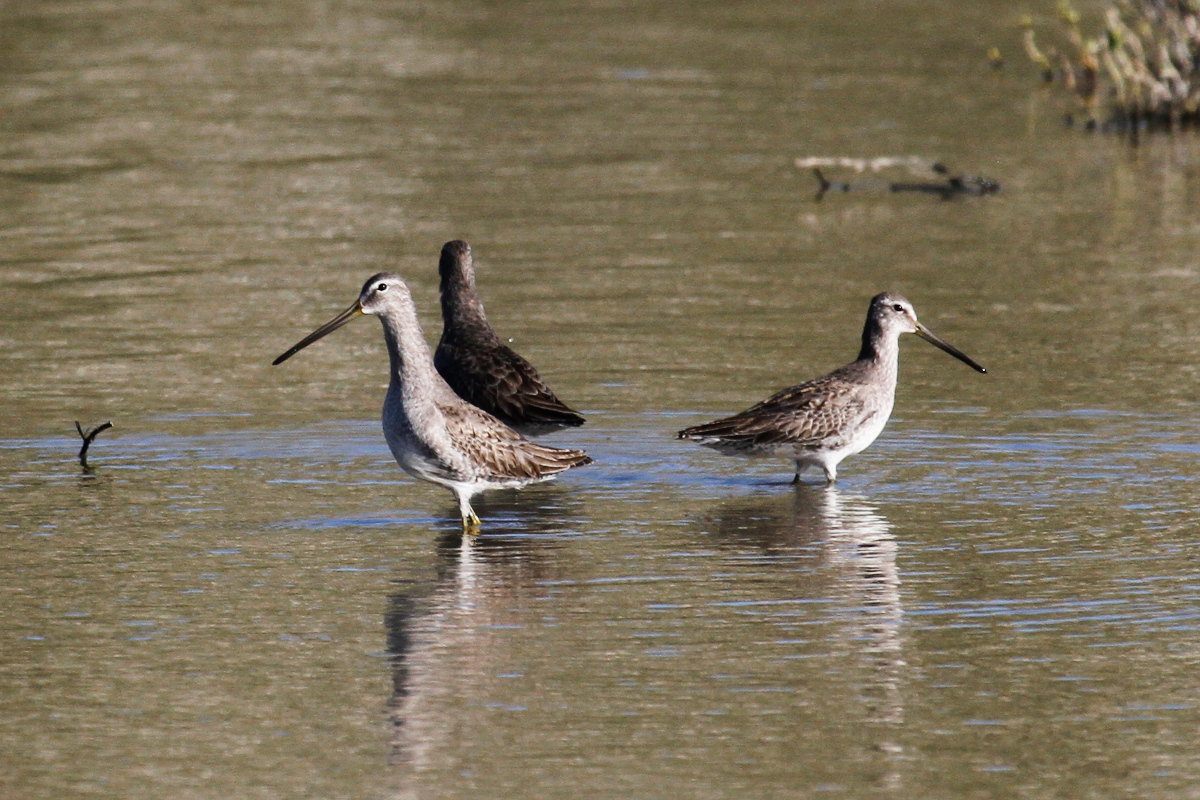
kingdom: Animalia
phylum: Chordata
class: Aves
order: Charadriiformes
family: Scolopacidae
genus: Limnodromus
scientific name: Limnodromus scolopaceus
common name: Long-billed dowitcher
